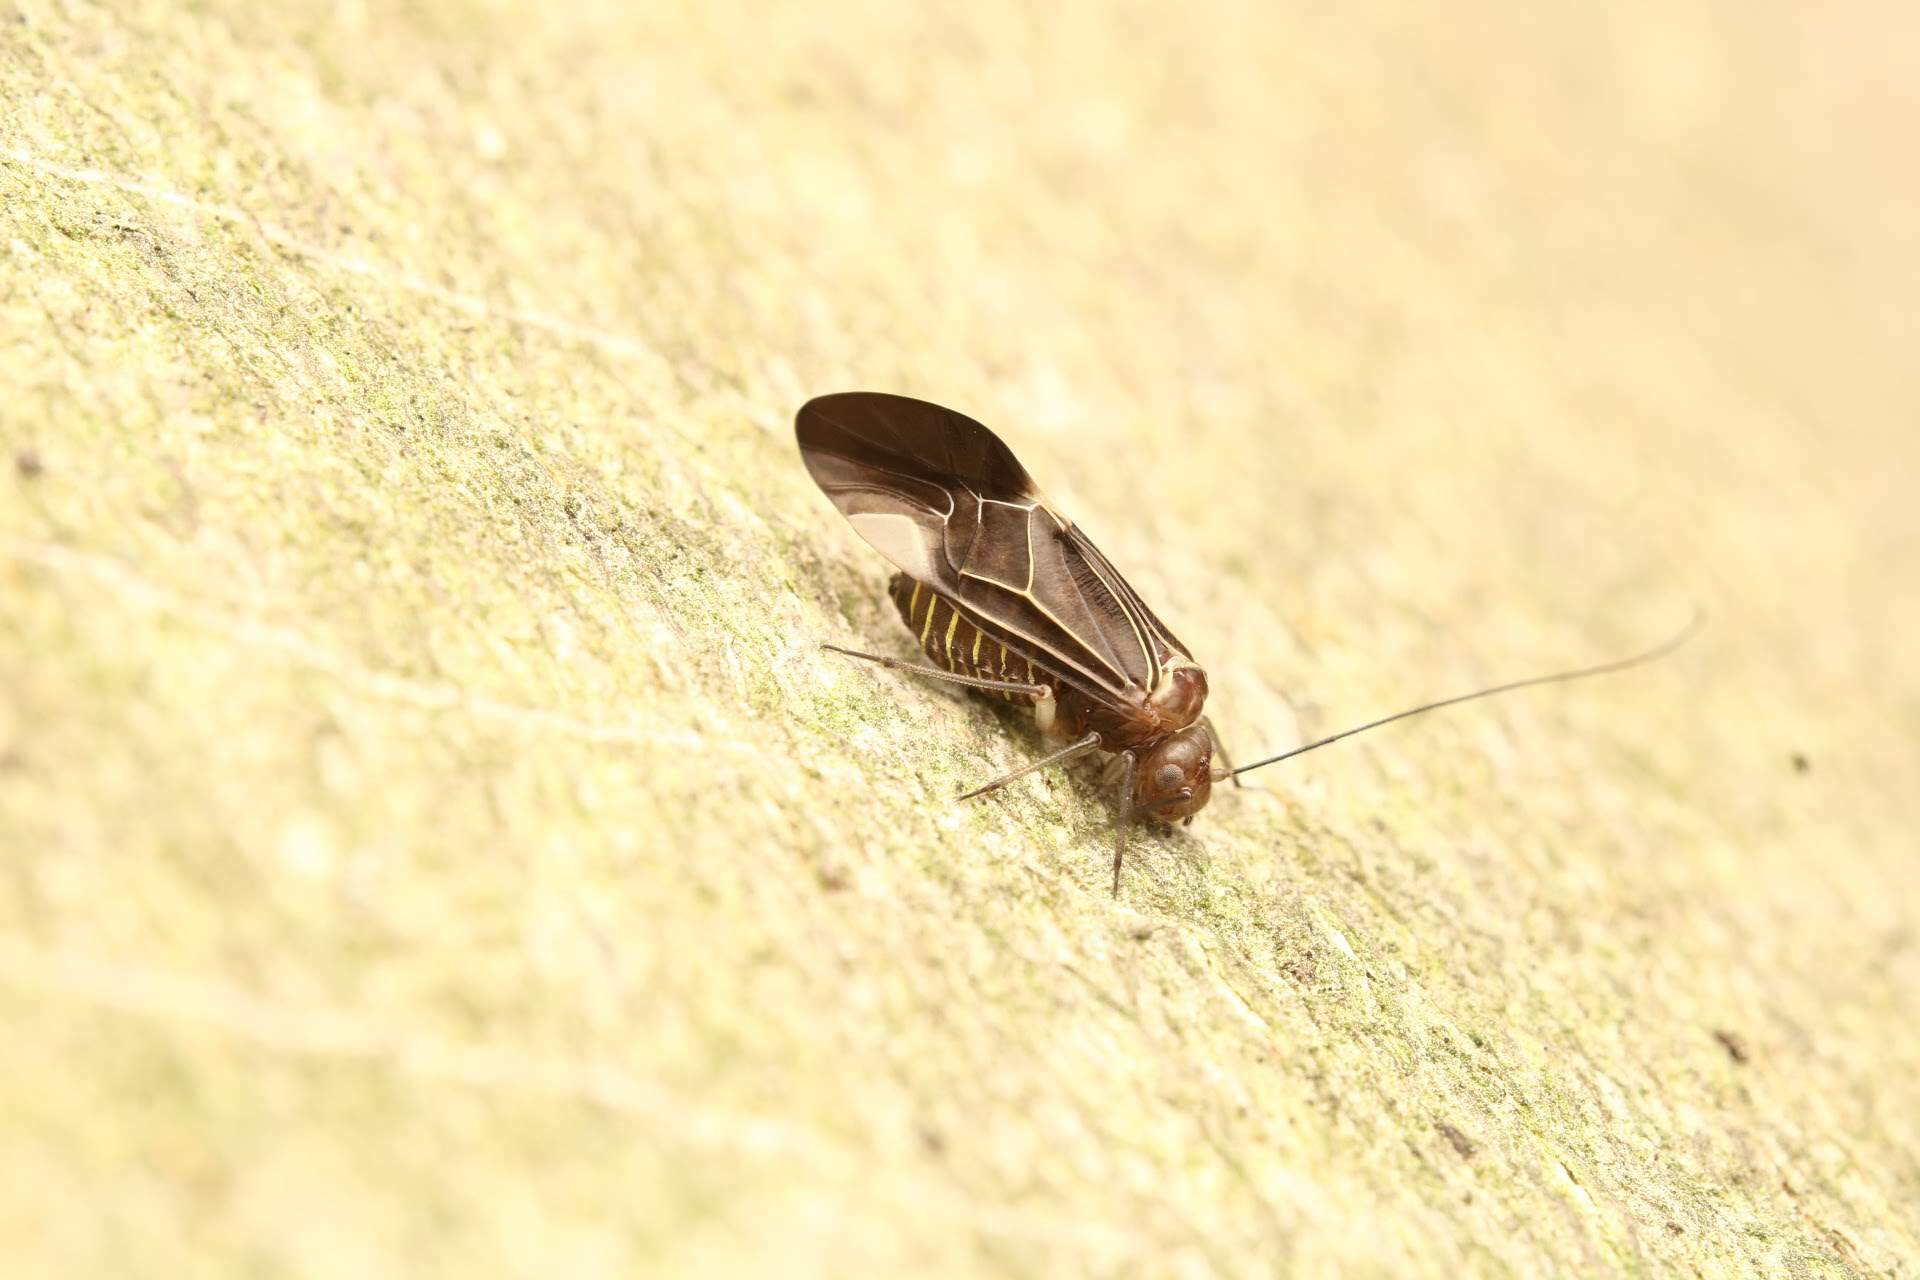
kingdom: Animalia
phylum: Arthropoda
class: Insecta
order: Psocodea
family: Psocidae
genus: Cerastipsocus
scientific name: Cerastipsocus venosus
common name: Tree cattle
